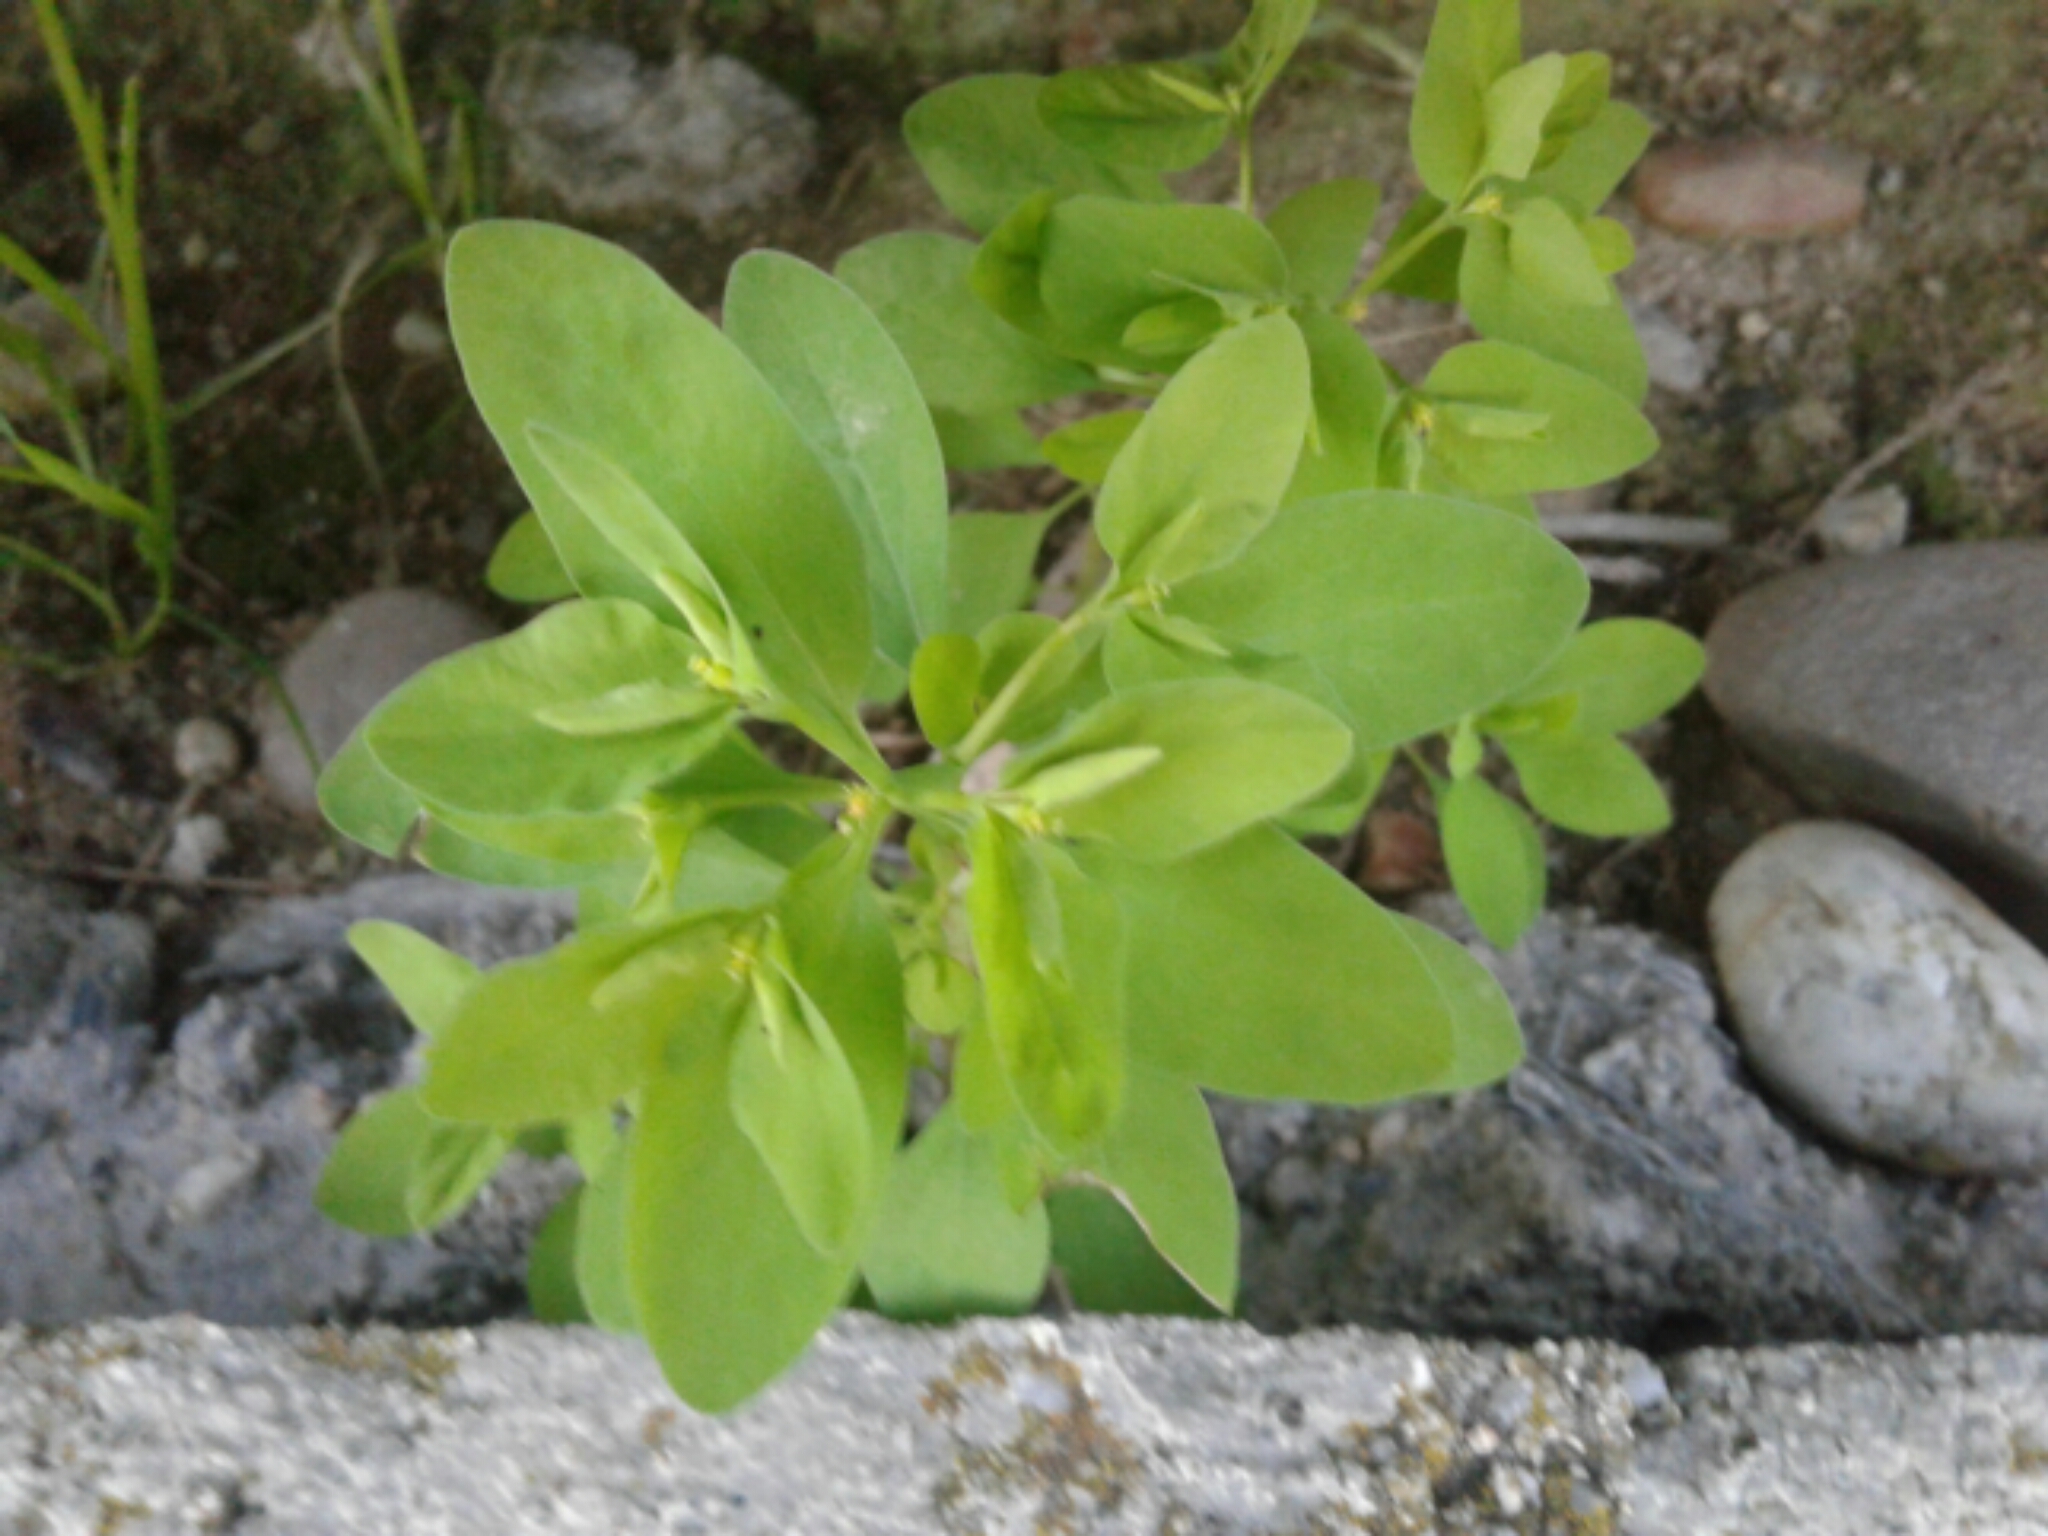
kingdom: Plantae
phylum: Tracheophyta
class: Magnoliopsida
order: Malpighiales
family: Euphorbiaceae
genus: Euphorbia
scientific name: Euphorbia peplus
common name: Petty spurge
